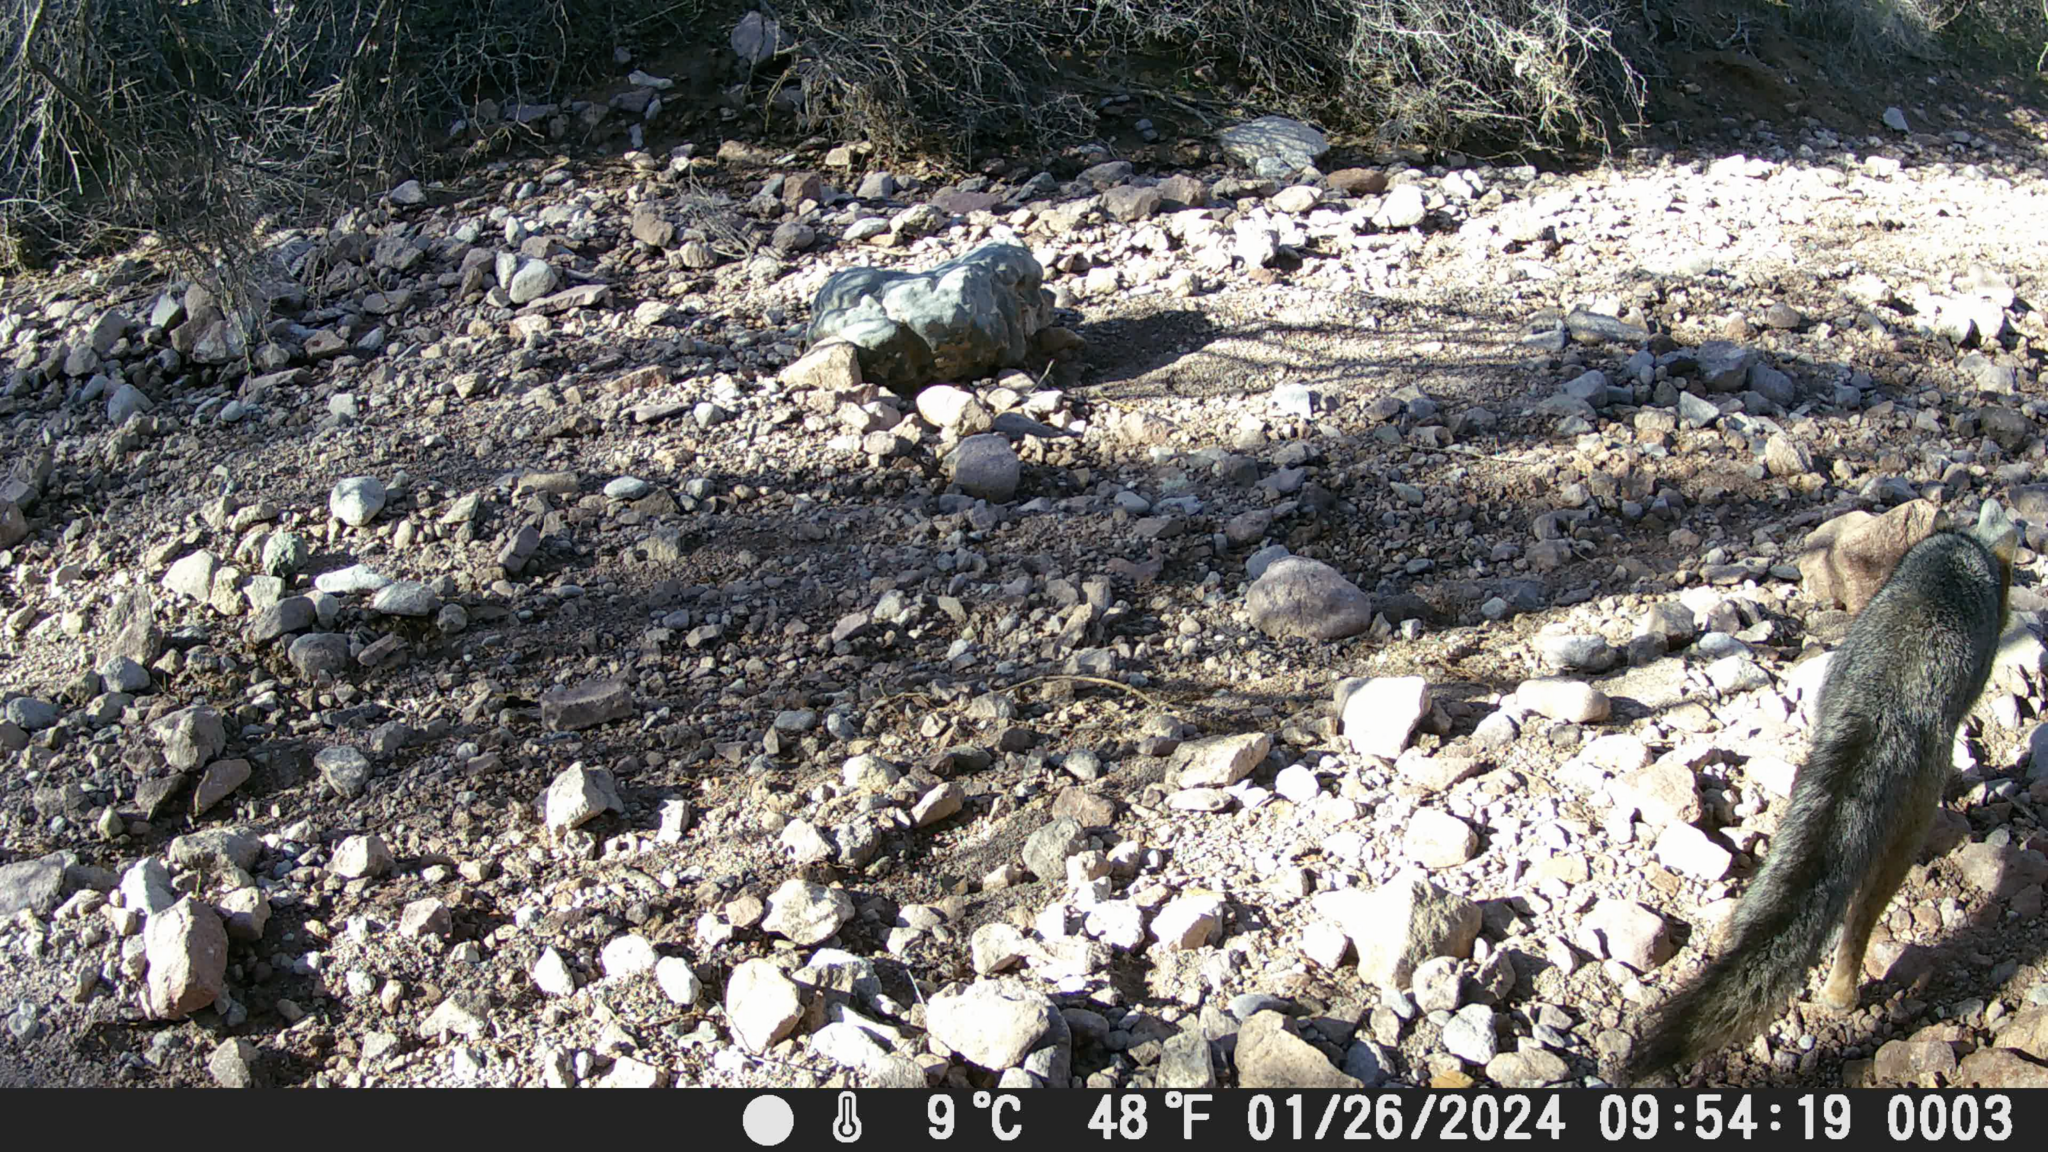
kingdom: Animalia
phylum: Chordata
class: Mammalia
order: Carnivora
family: Canidae
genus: Urocyon
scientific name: Urocyon cinereoargenteus
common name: Gray fox
